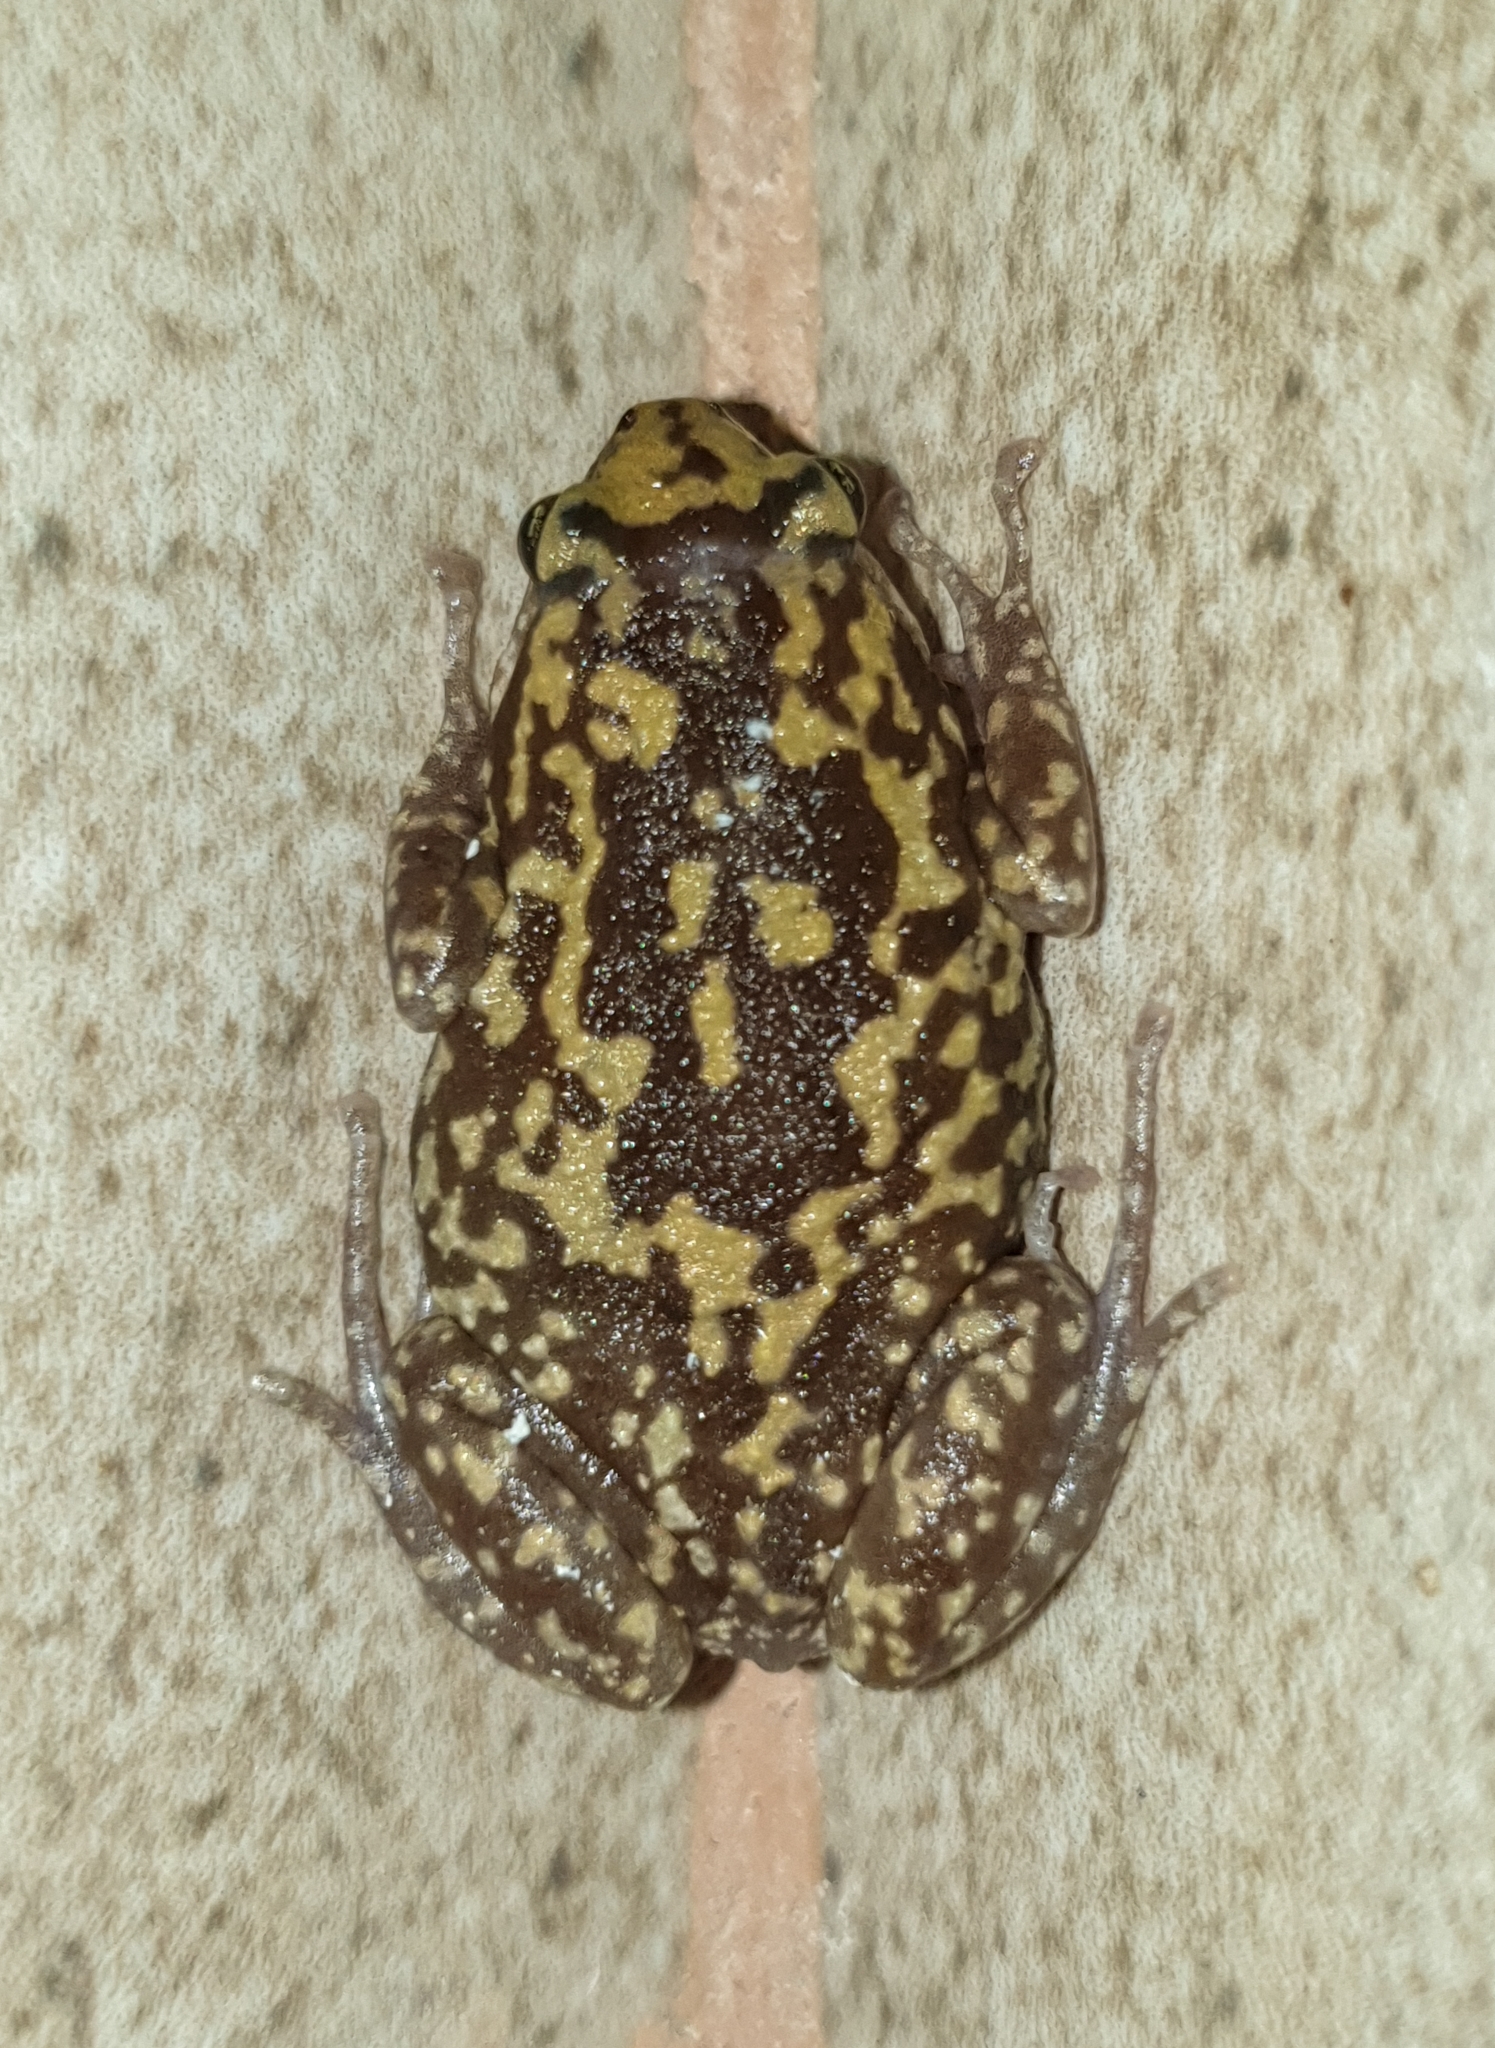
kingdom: Animalia
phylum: Chordata
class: Amphibia
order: Anura
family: Microhylidae
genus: Uperodon
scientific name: Uperodon rohani
